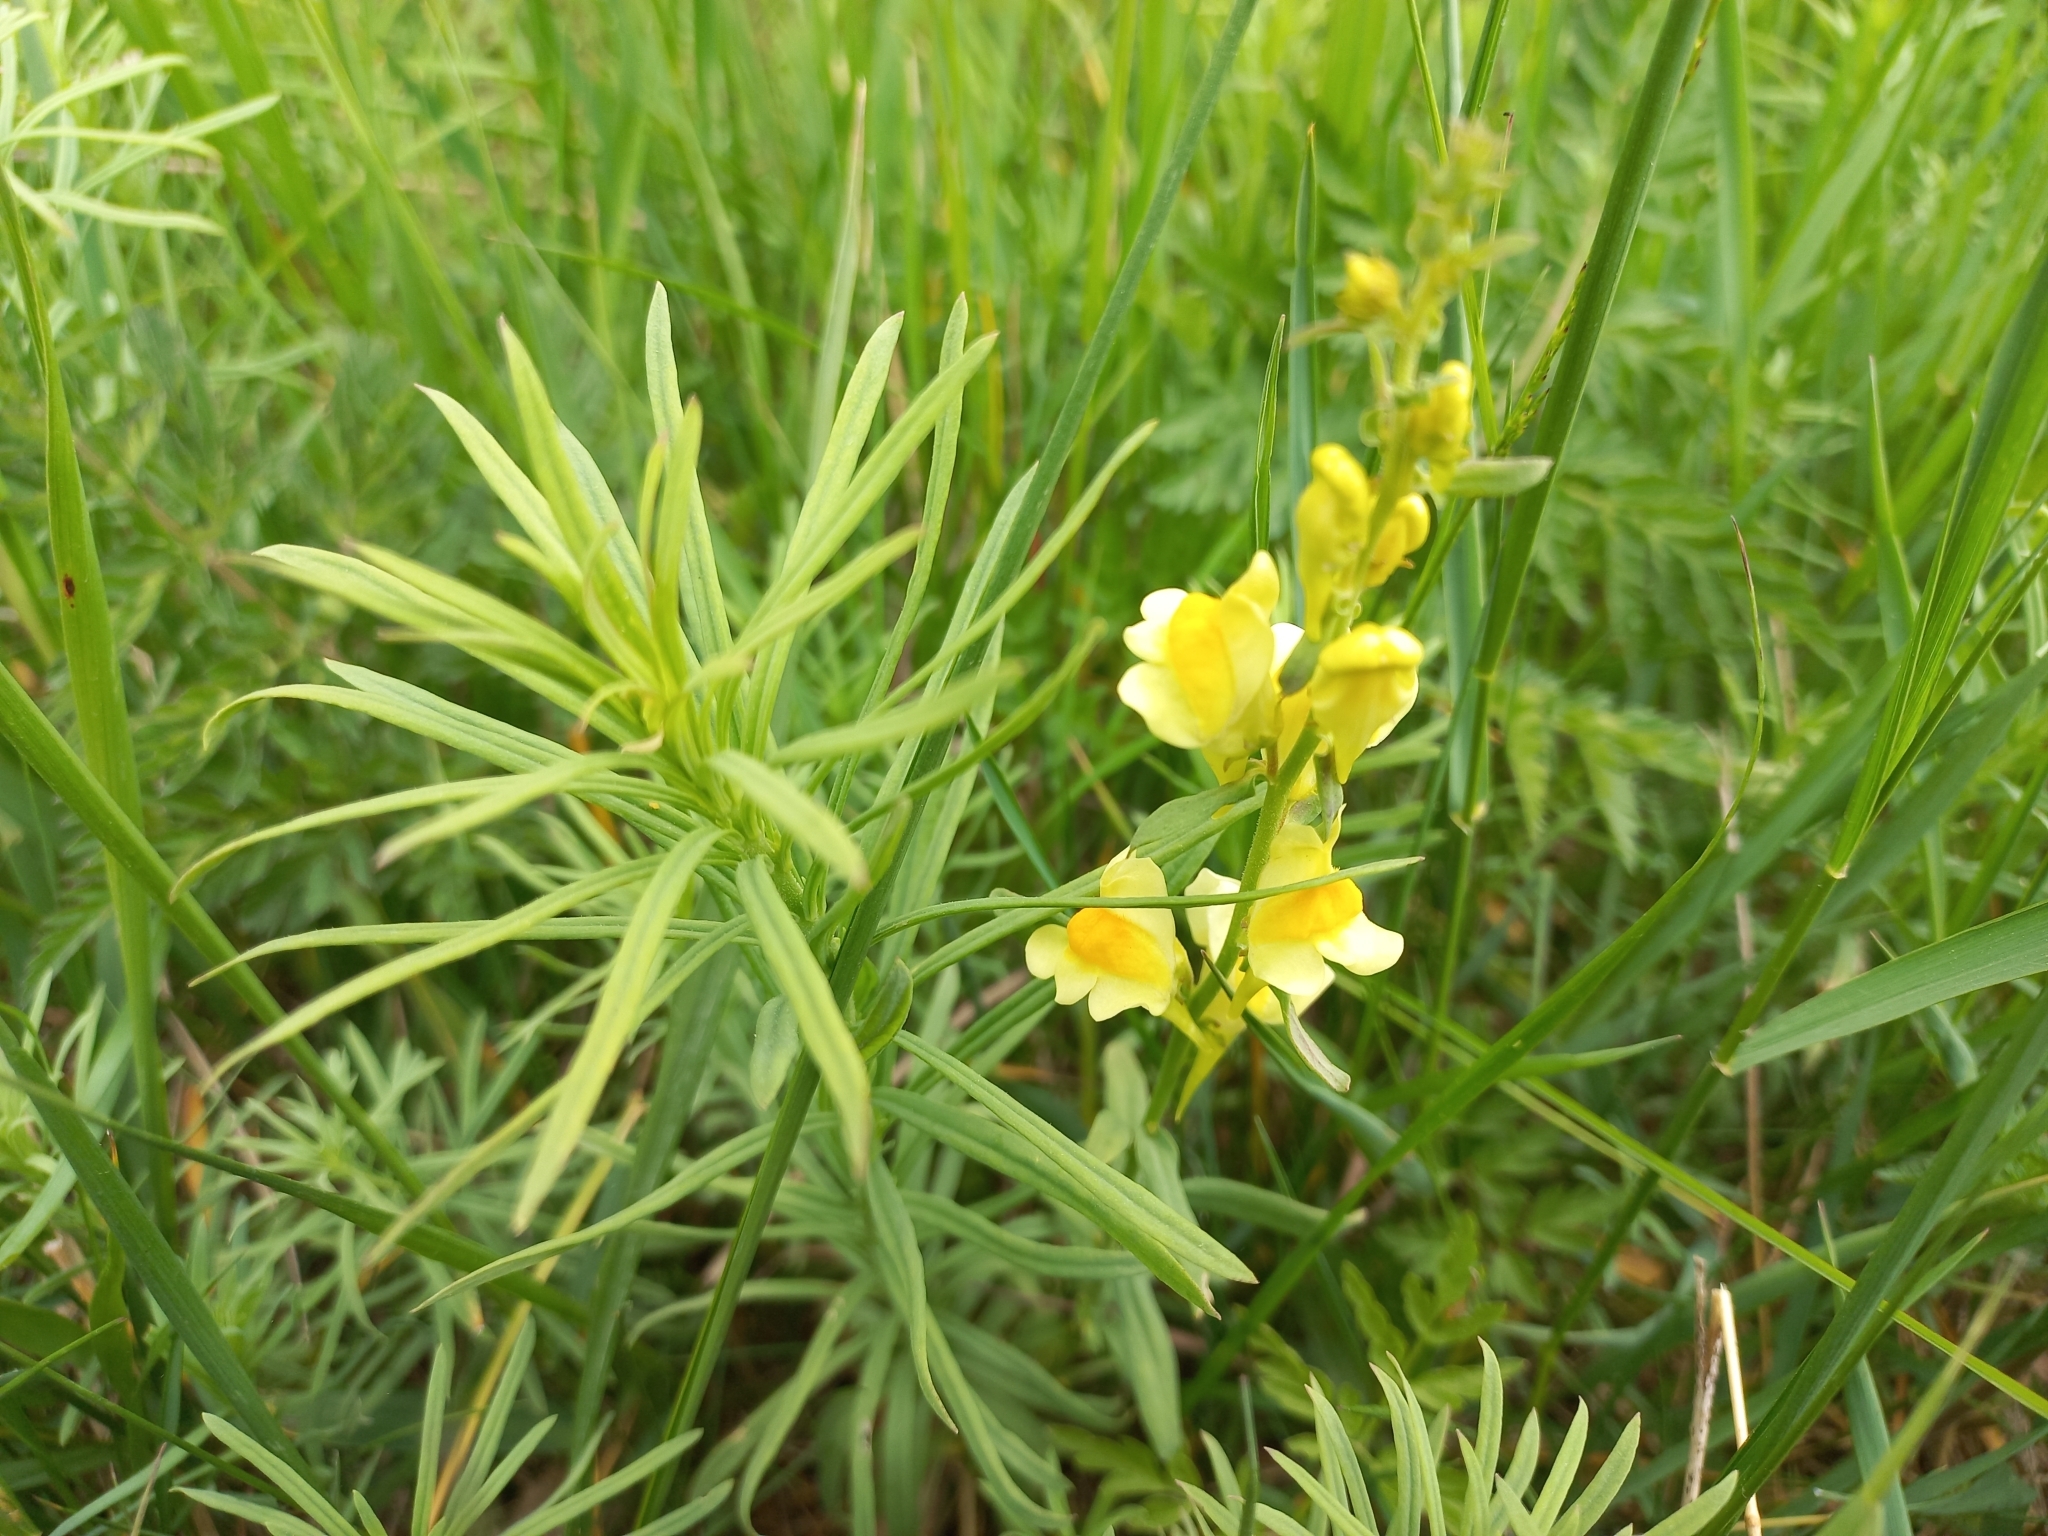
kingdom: Plantae
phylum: Tracheophyta
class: Magnoliopsida
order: Lamiales
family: Plantaginaceae
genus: Linaria
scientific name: Linaria vulgaris
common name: Butter and eggs
